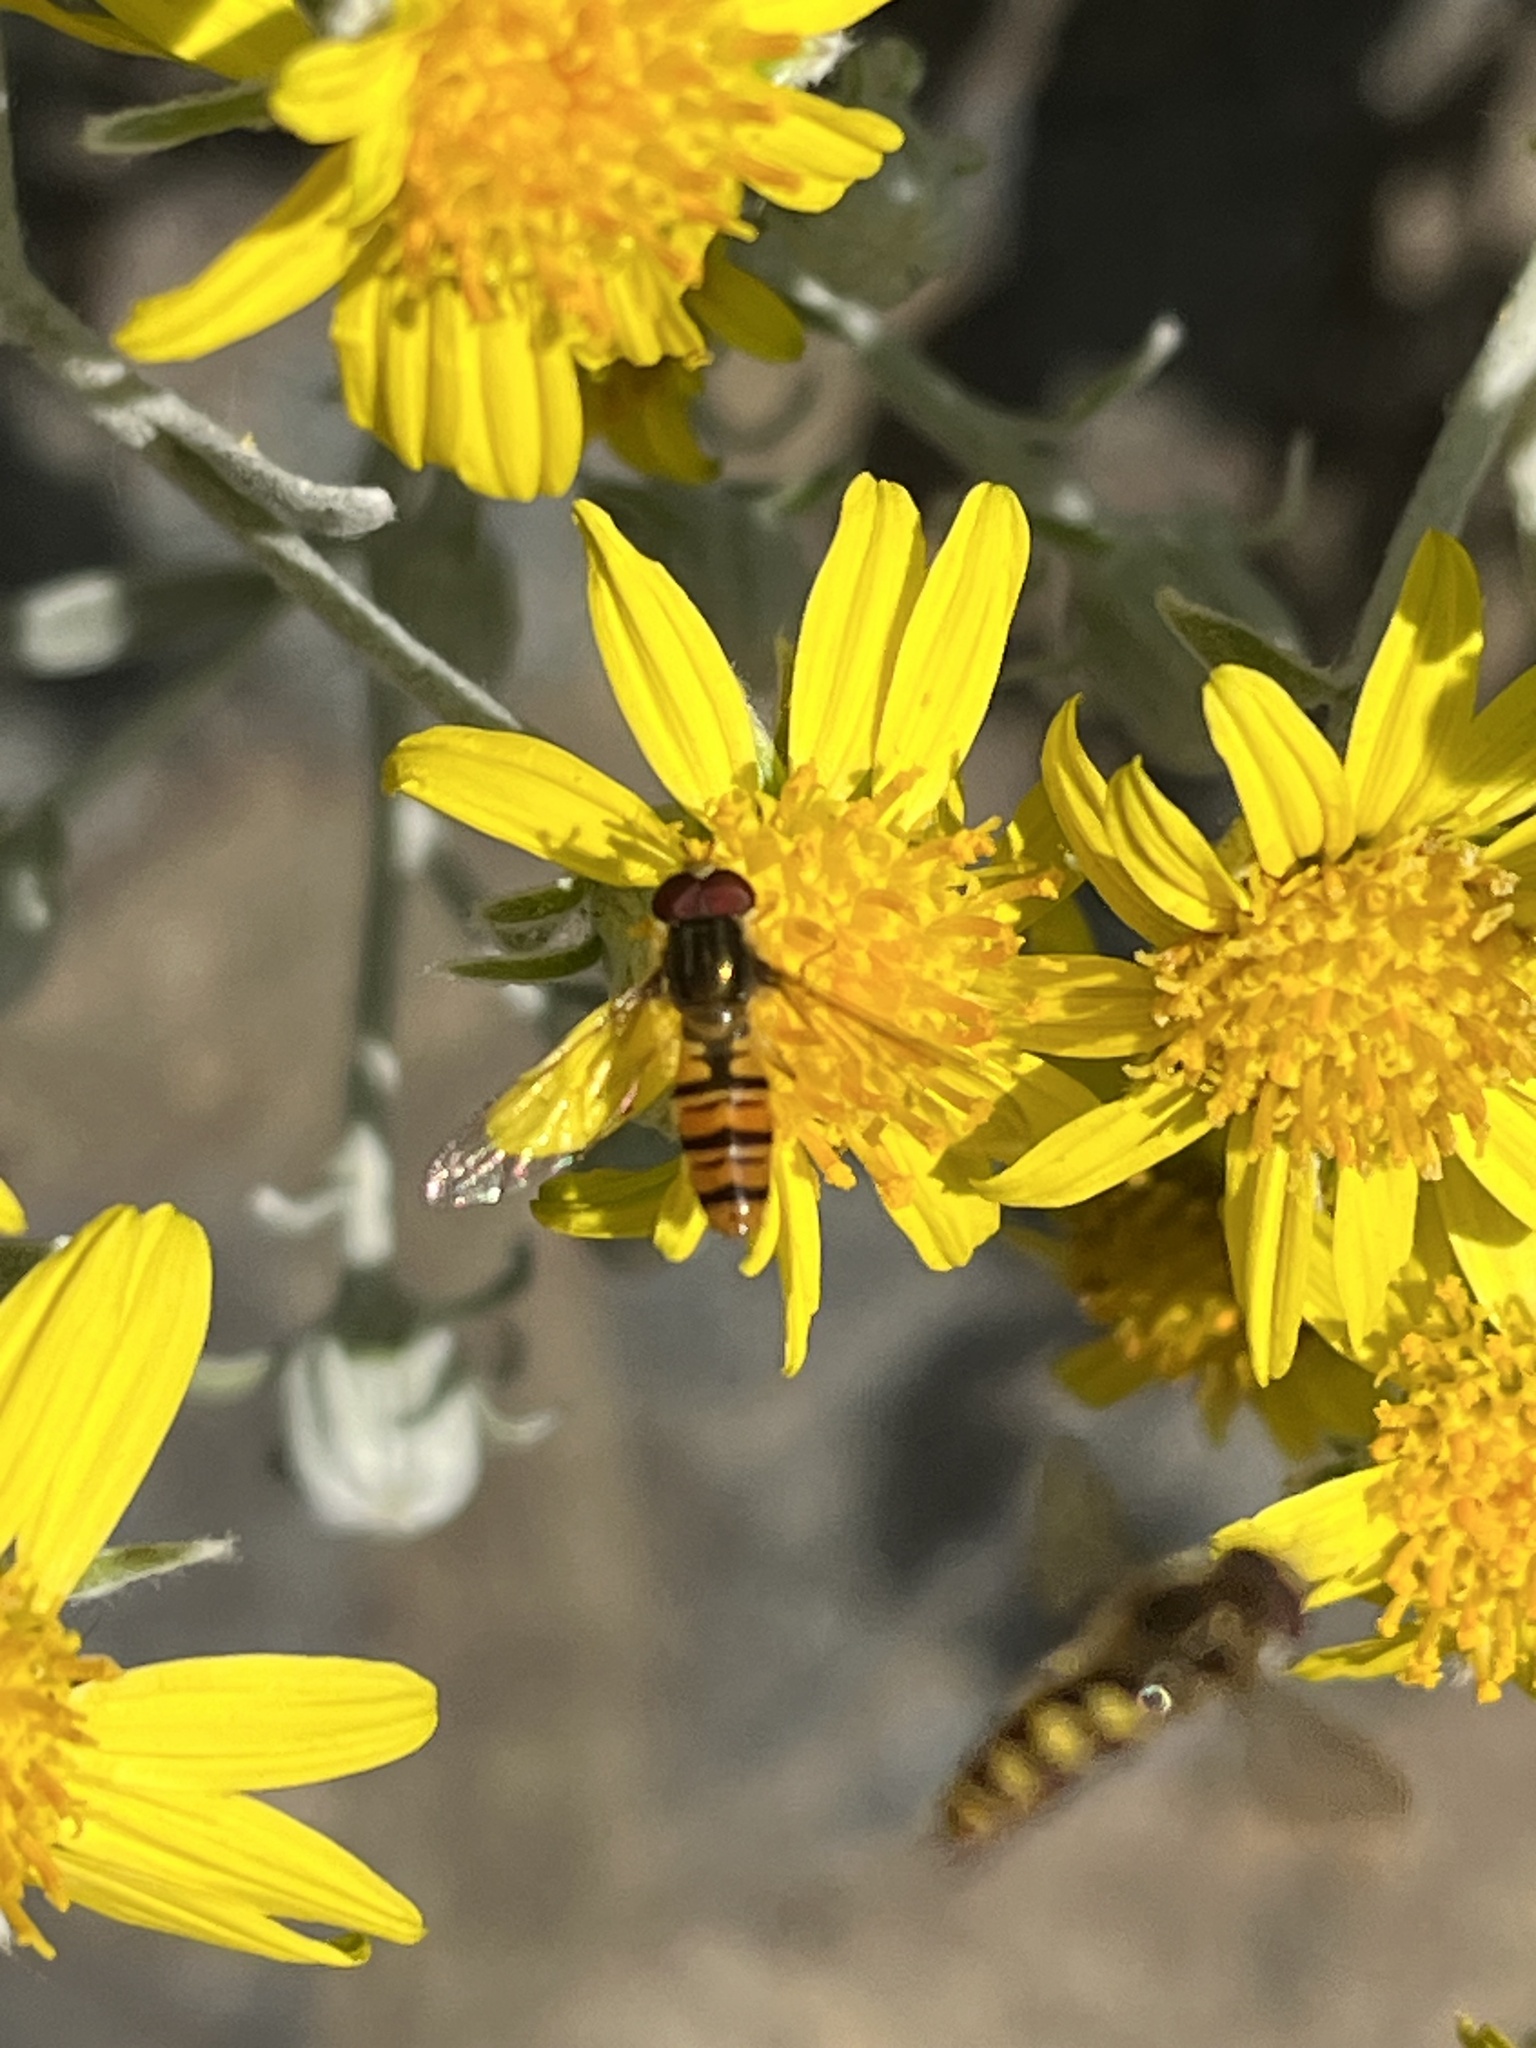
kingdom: Animalia
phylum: Arthropoda
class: Insecta
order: Diptera
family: Syrphidae
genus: Episyrphus
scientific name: Episyrphus balteatus
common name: Marmalade hoverfly
